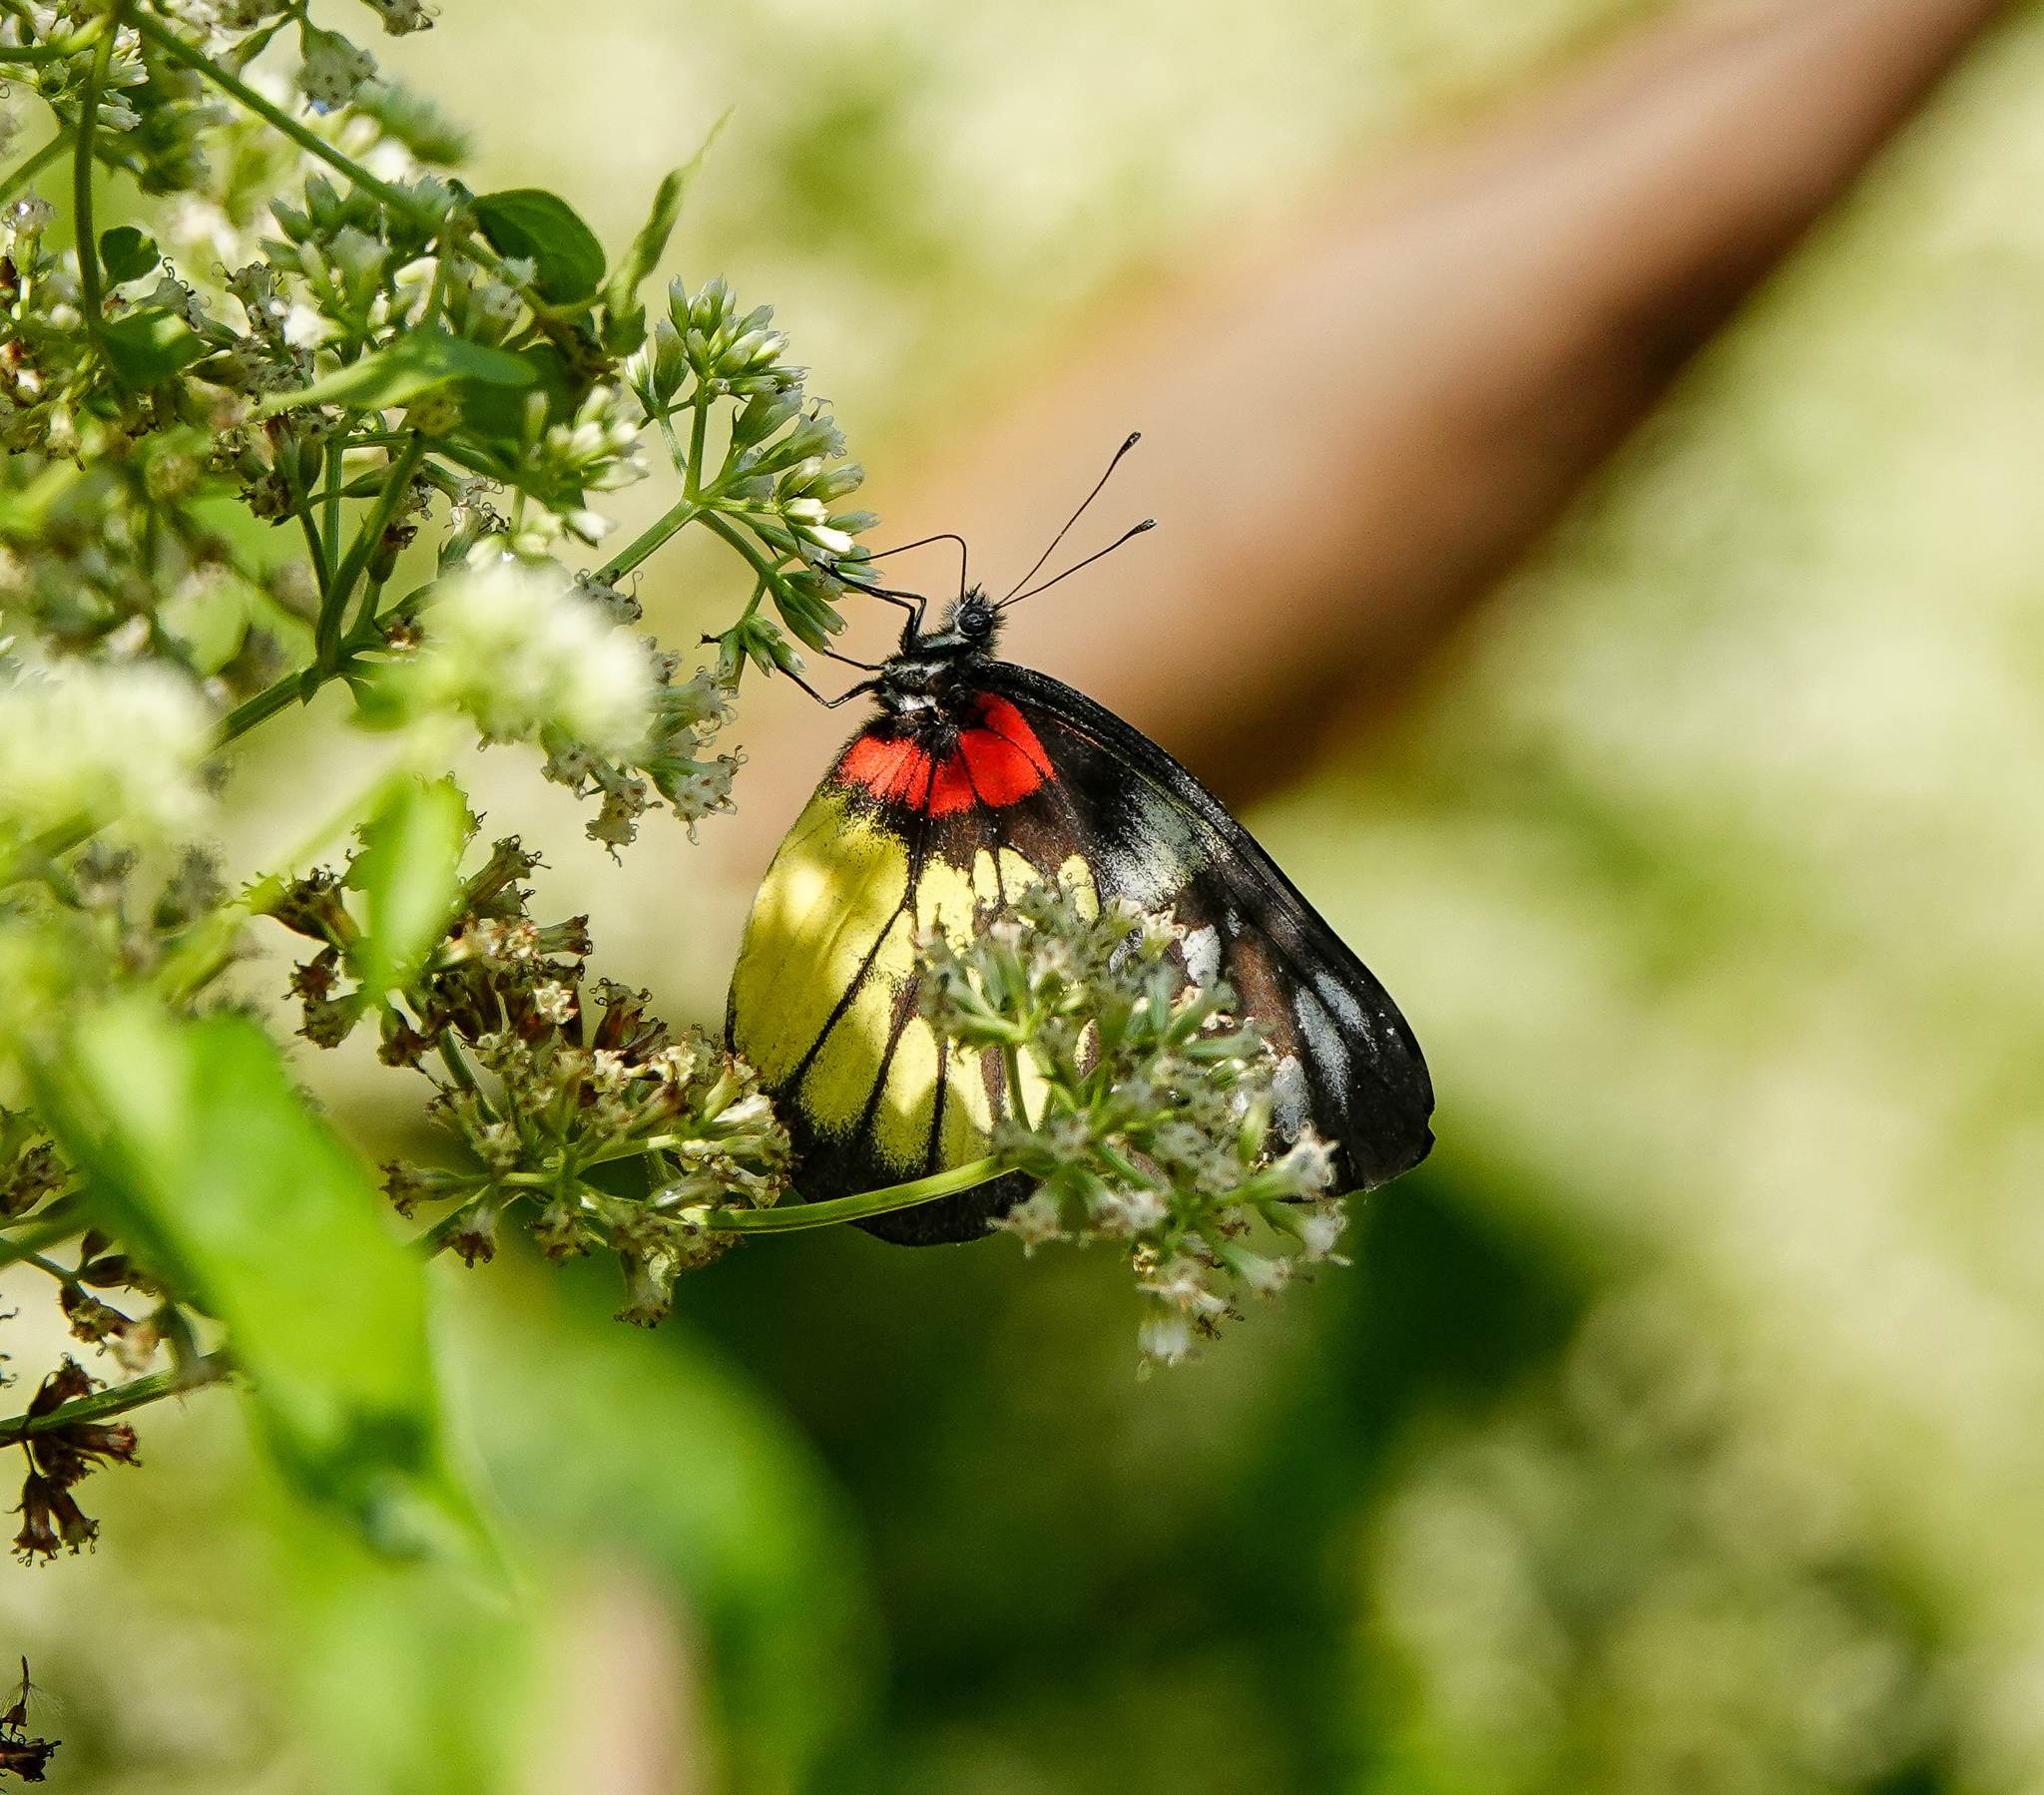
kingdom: Animalia
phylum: Arthropoda
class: Insecta
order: Lepidoptera
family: Pieridae
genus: Delias
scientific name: Delias pasithoe
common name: Red-base jezebel
